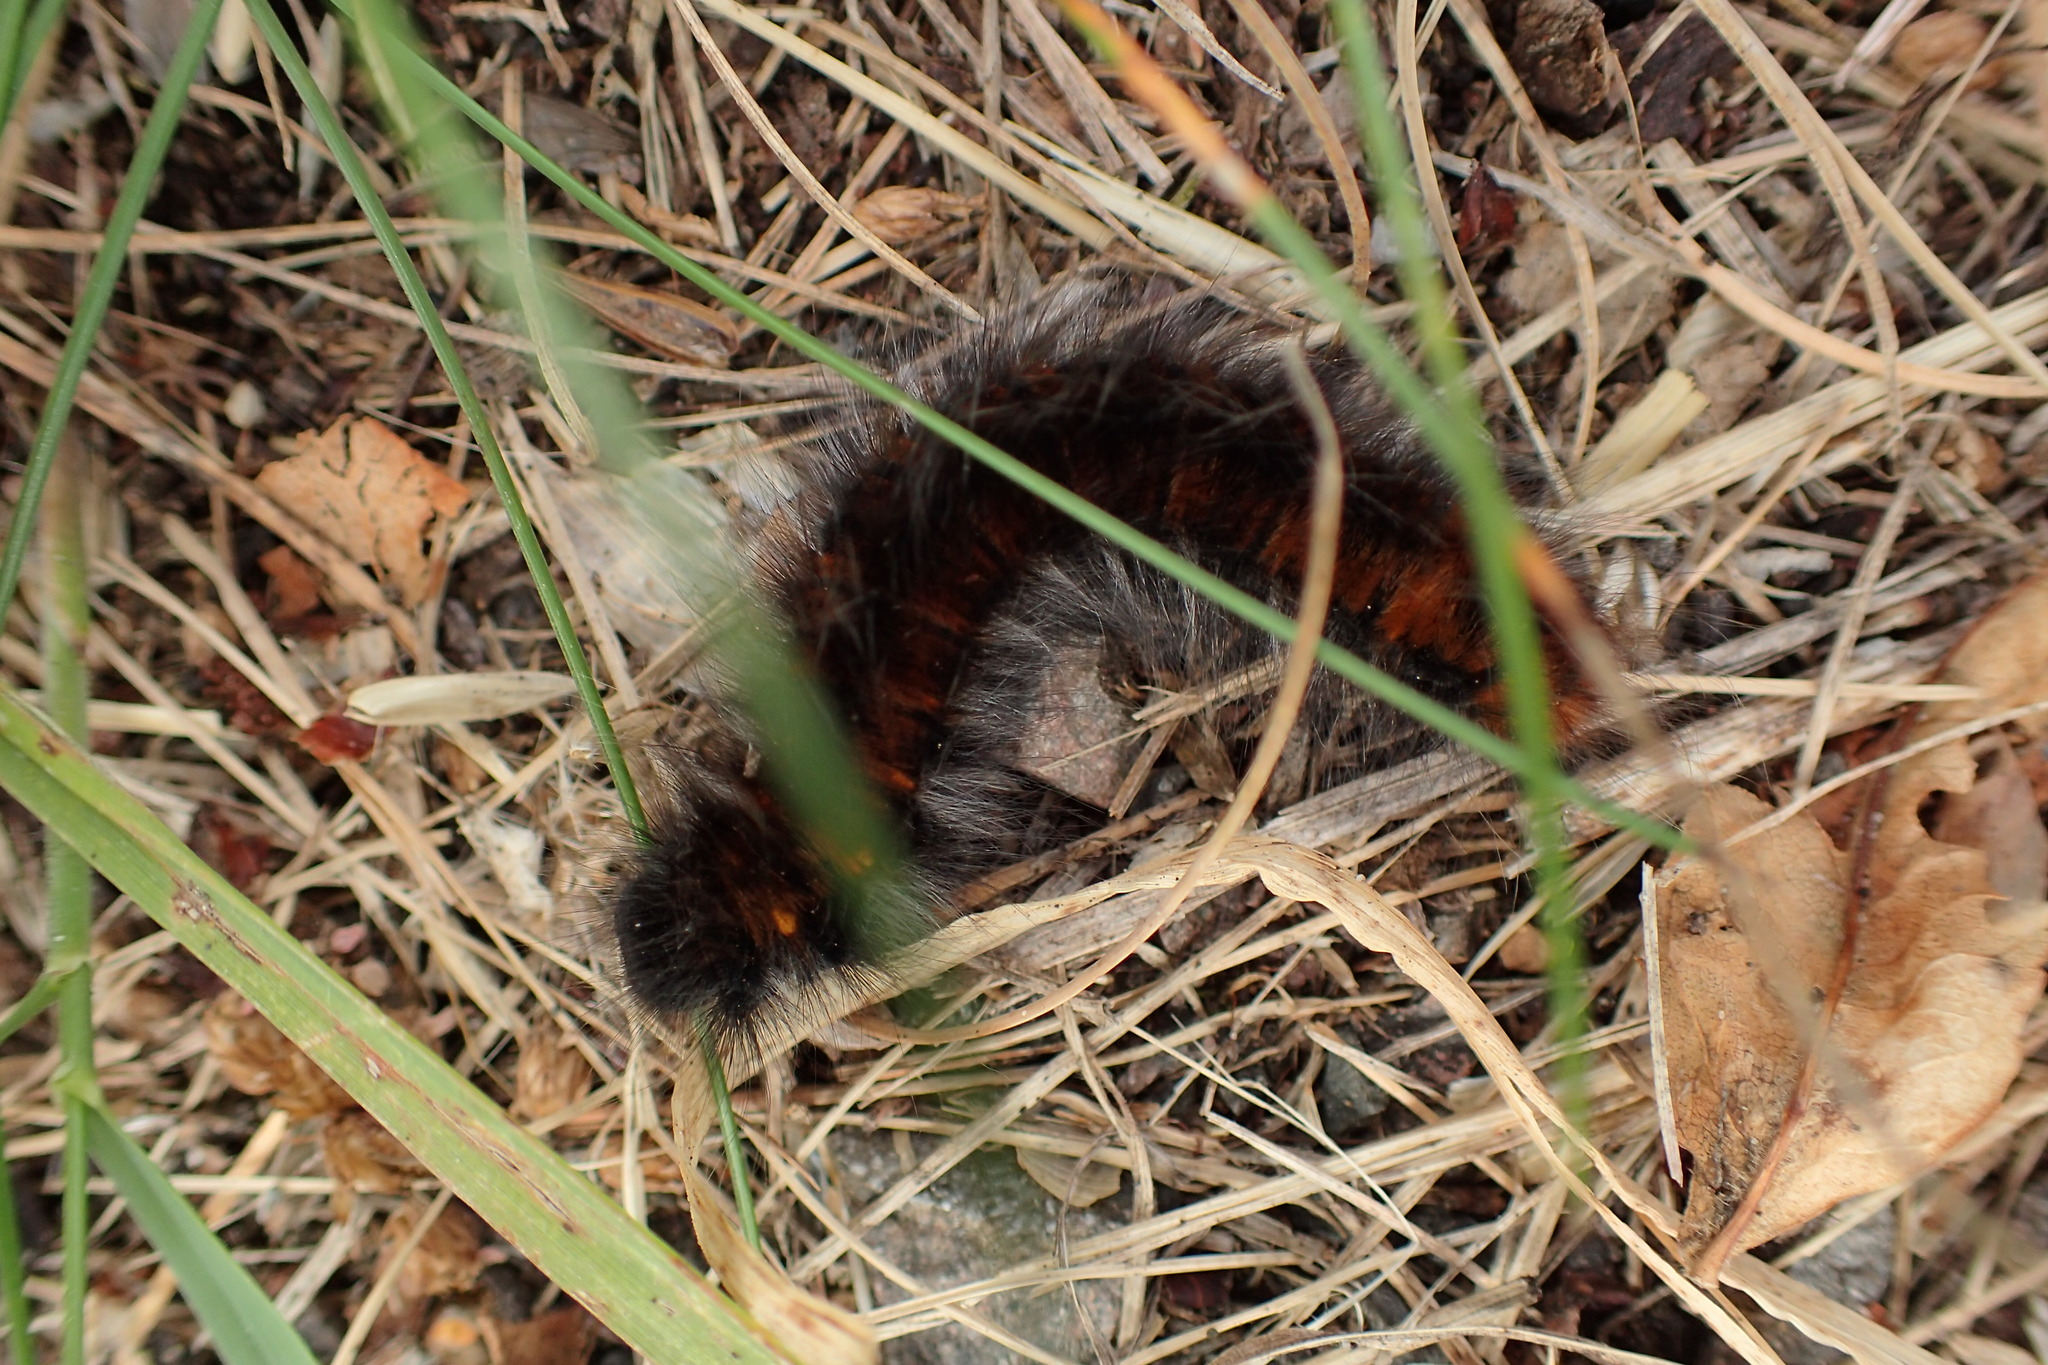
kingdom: Animalia
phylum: Arthropoda
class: Insecta
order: Lepidoptera
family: Lasiocampidae
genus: Macrothylacia
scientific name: Macrothylacia rubi
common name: Fox moth
